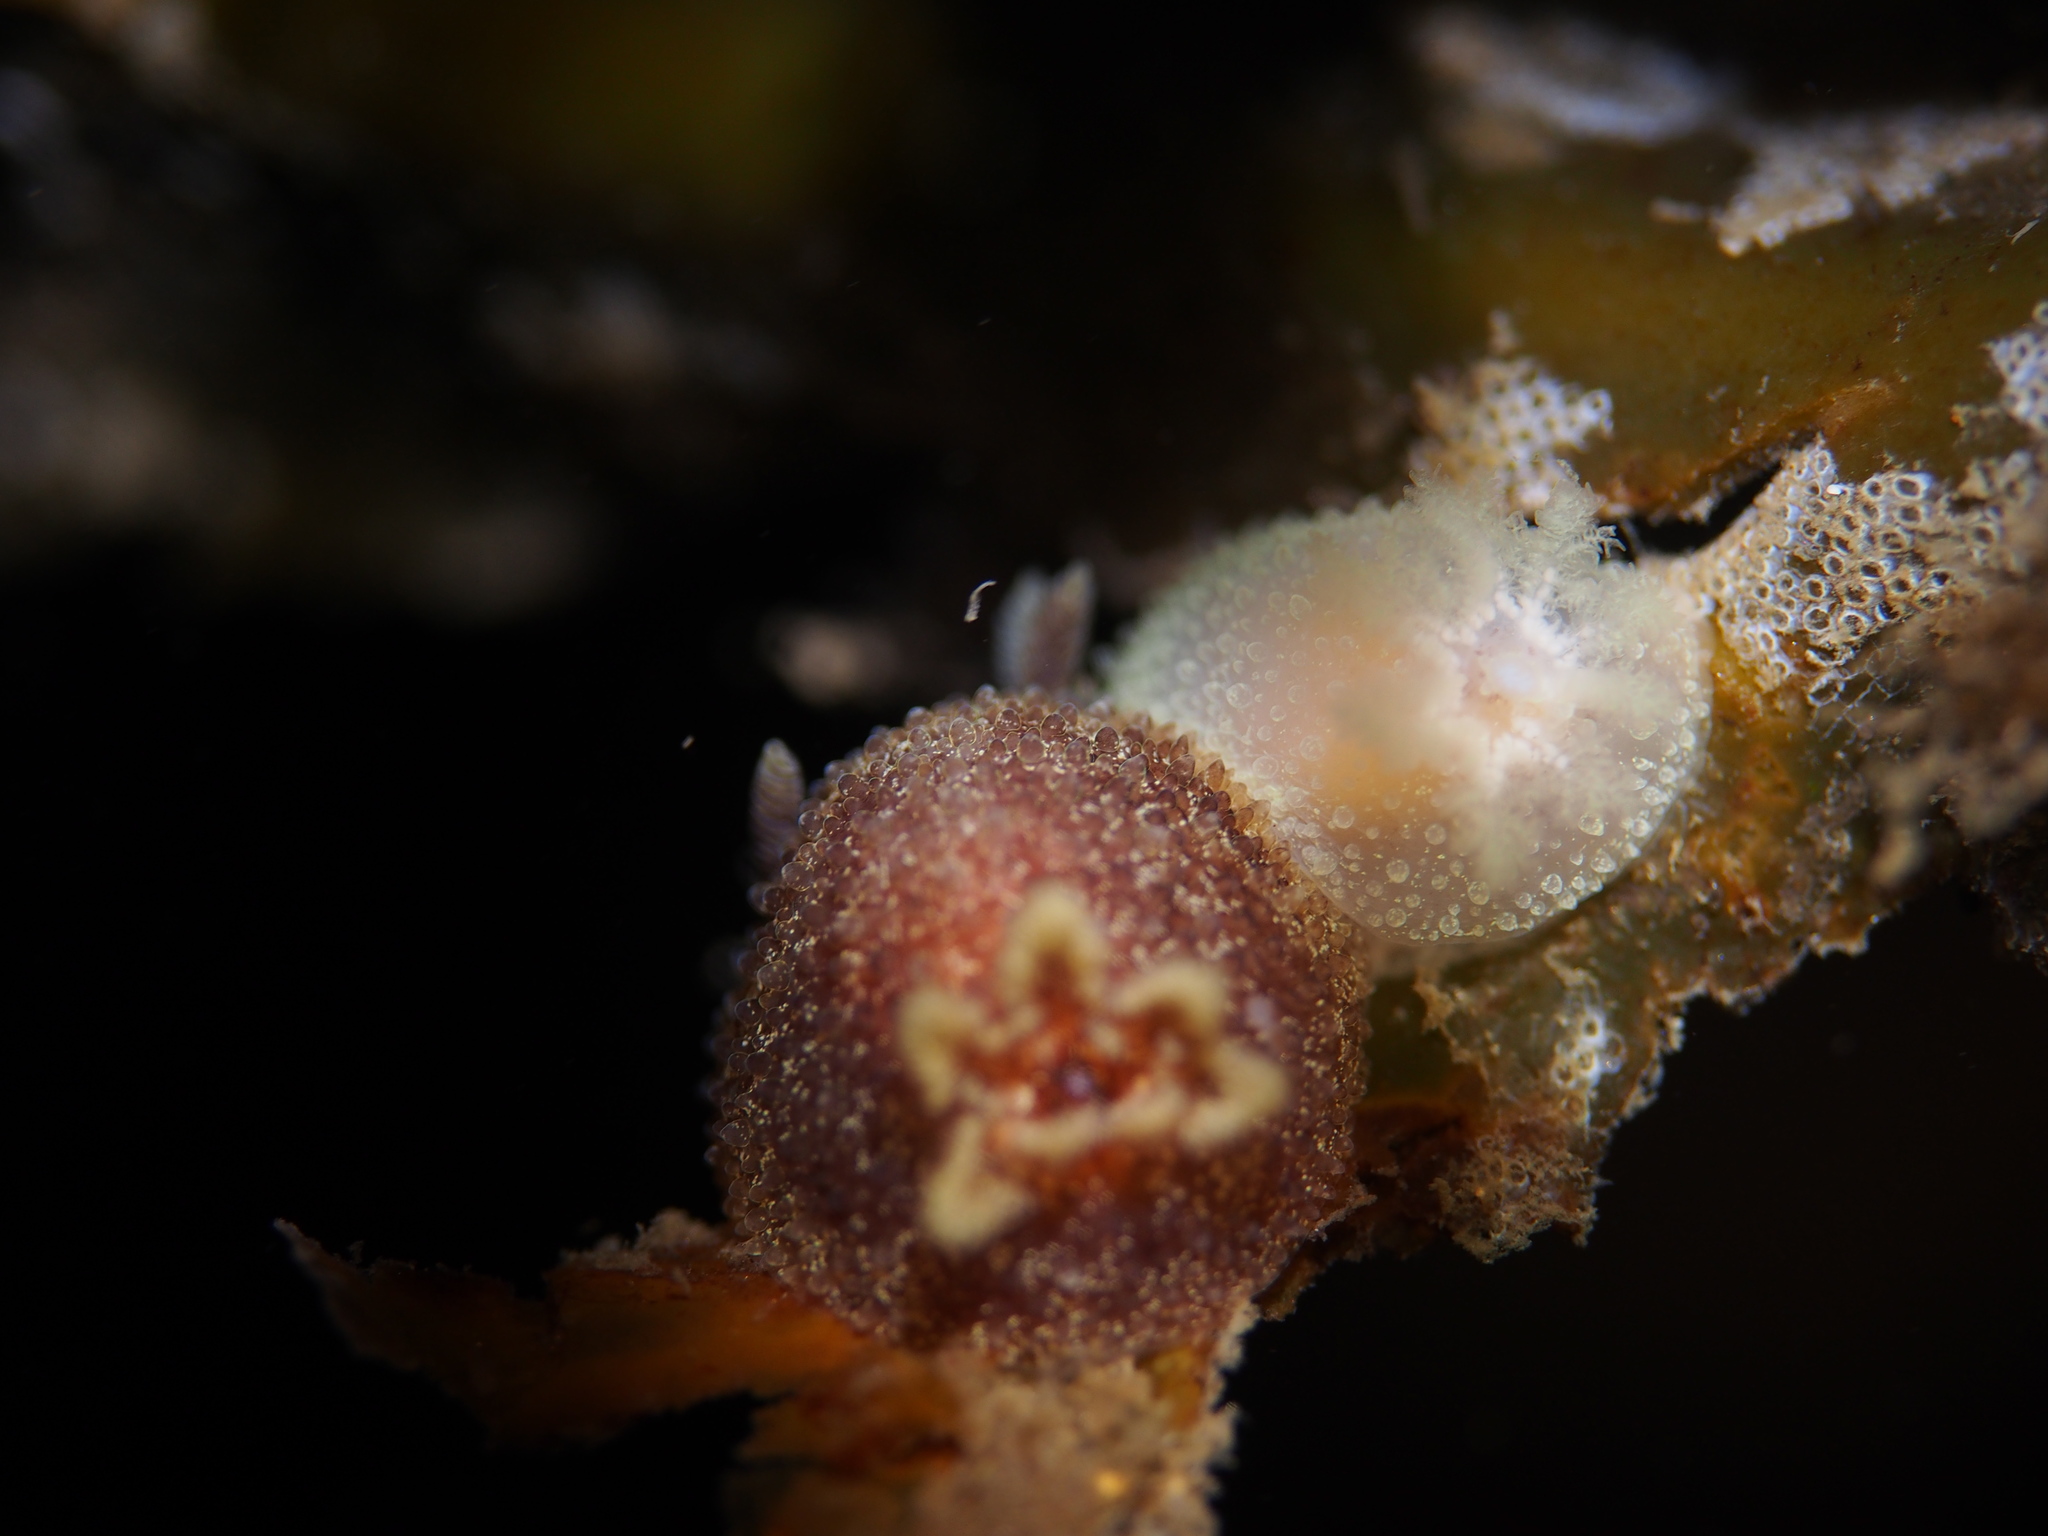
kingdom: Animalia
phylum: Mollusca
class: Gastropoda
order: Nudibranchia
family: Onchidorididae
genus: Acanthodoris
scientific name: Acanthodoris pilosa
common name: Hairy spiny doris
